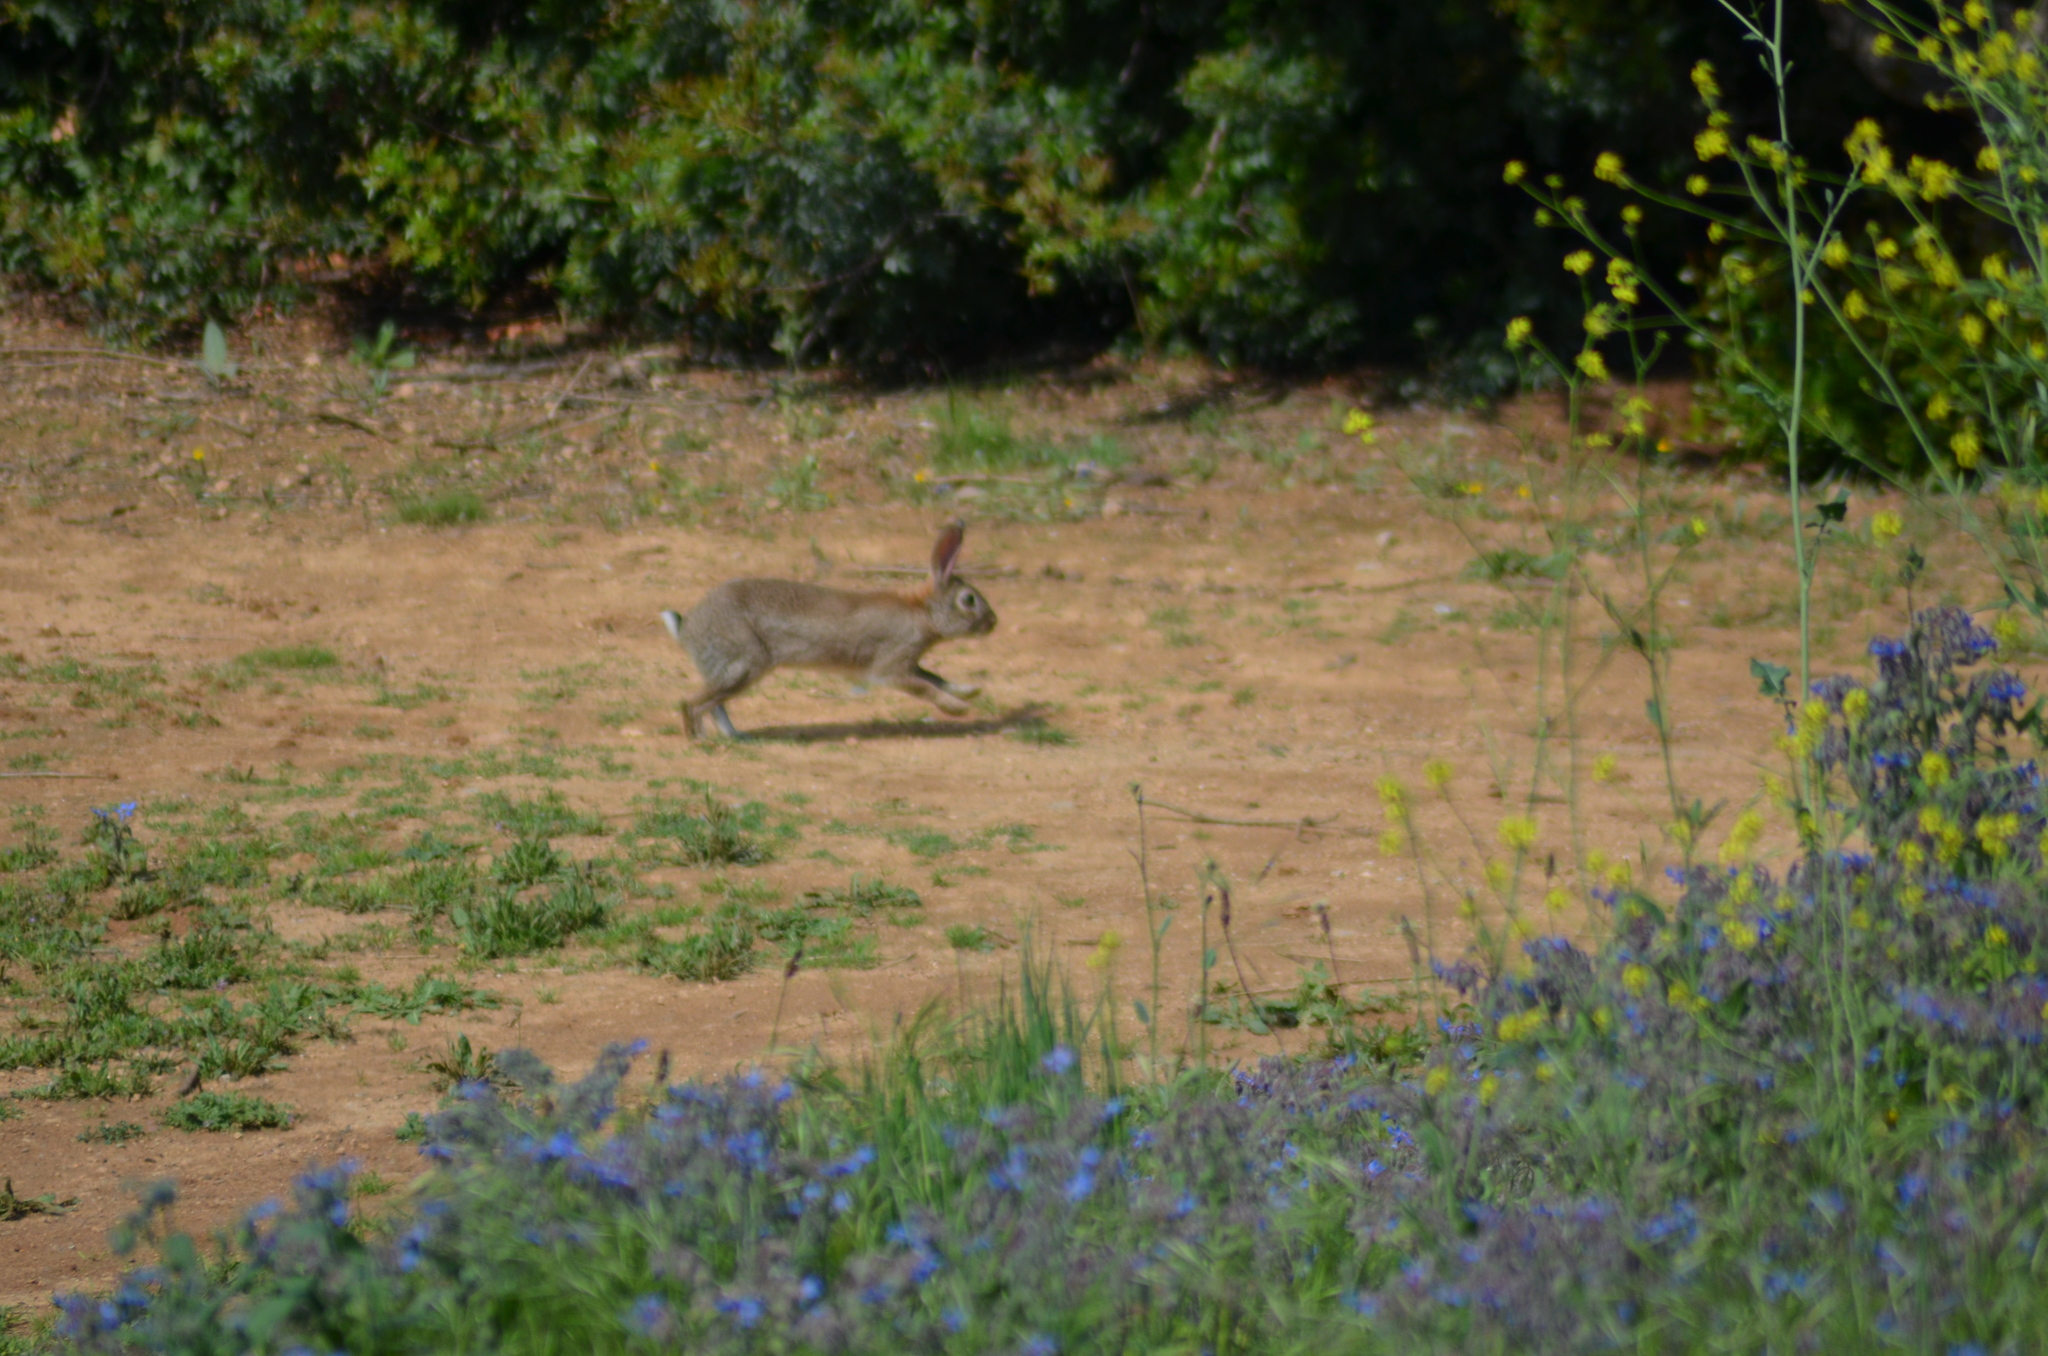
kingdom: Animalia
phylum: Chordata
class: Mammalia
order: Lagomorpha
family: Leporidae
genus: Oryctolagus
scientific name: Oryctolagus cuniculus
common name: European rabbit
